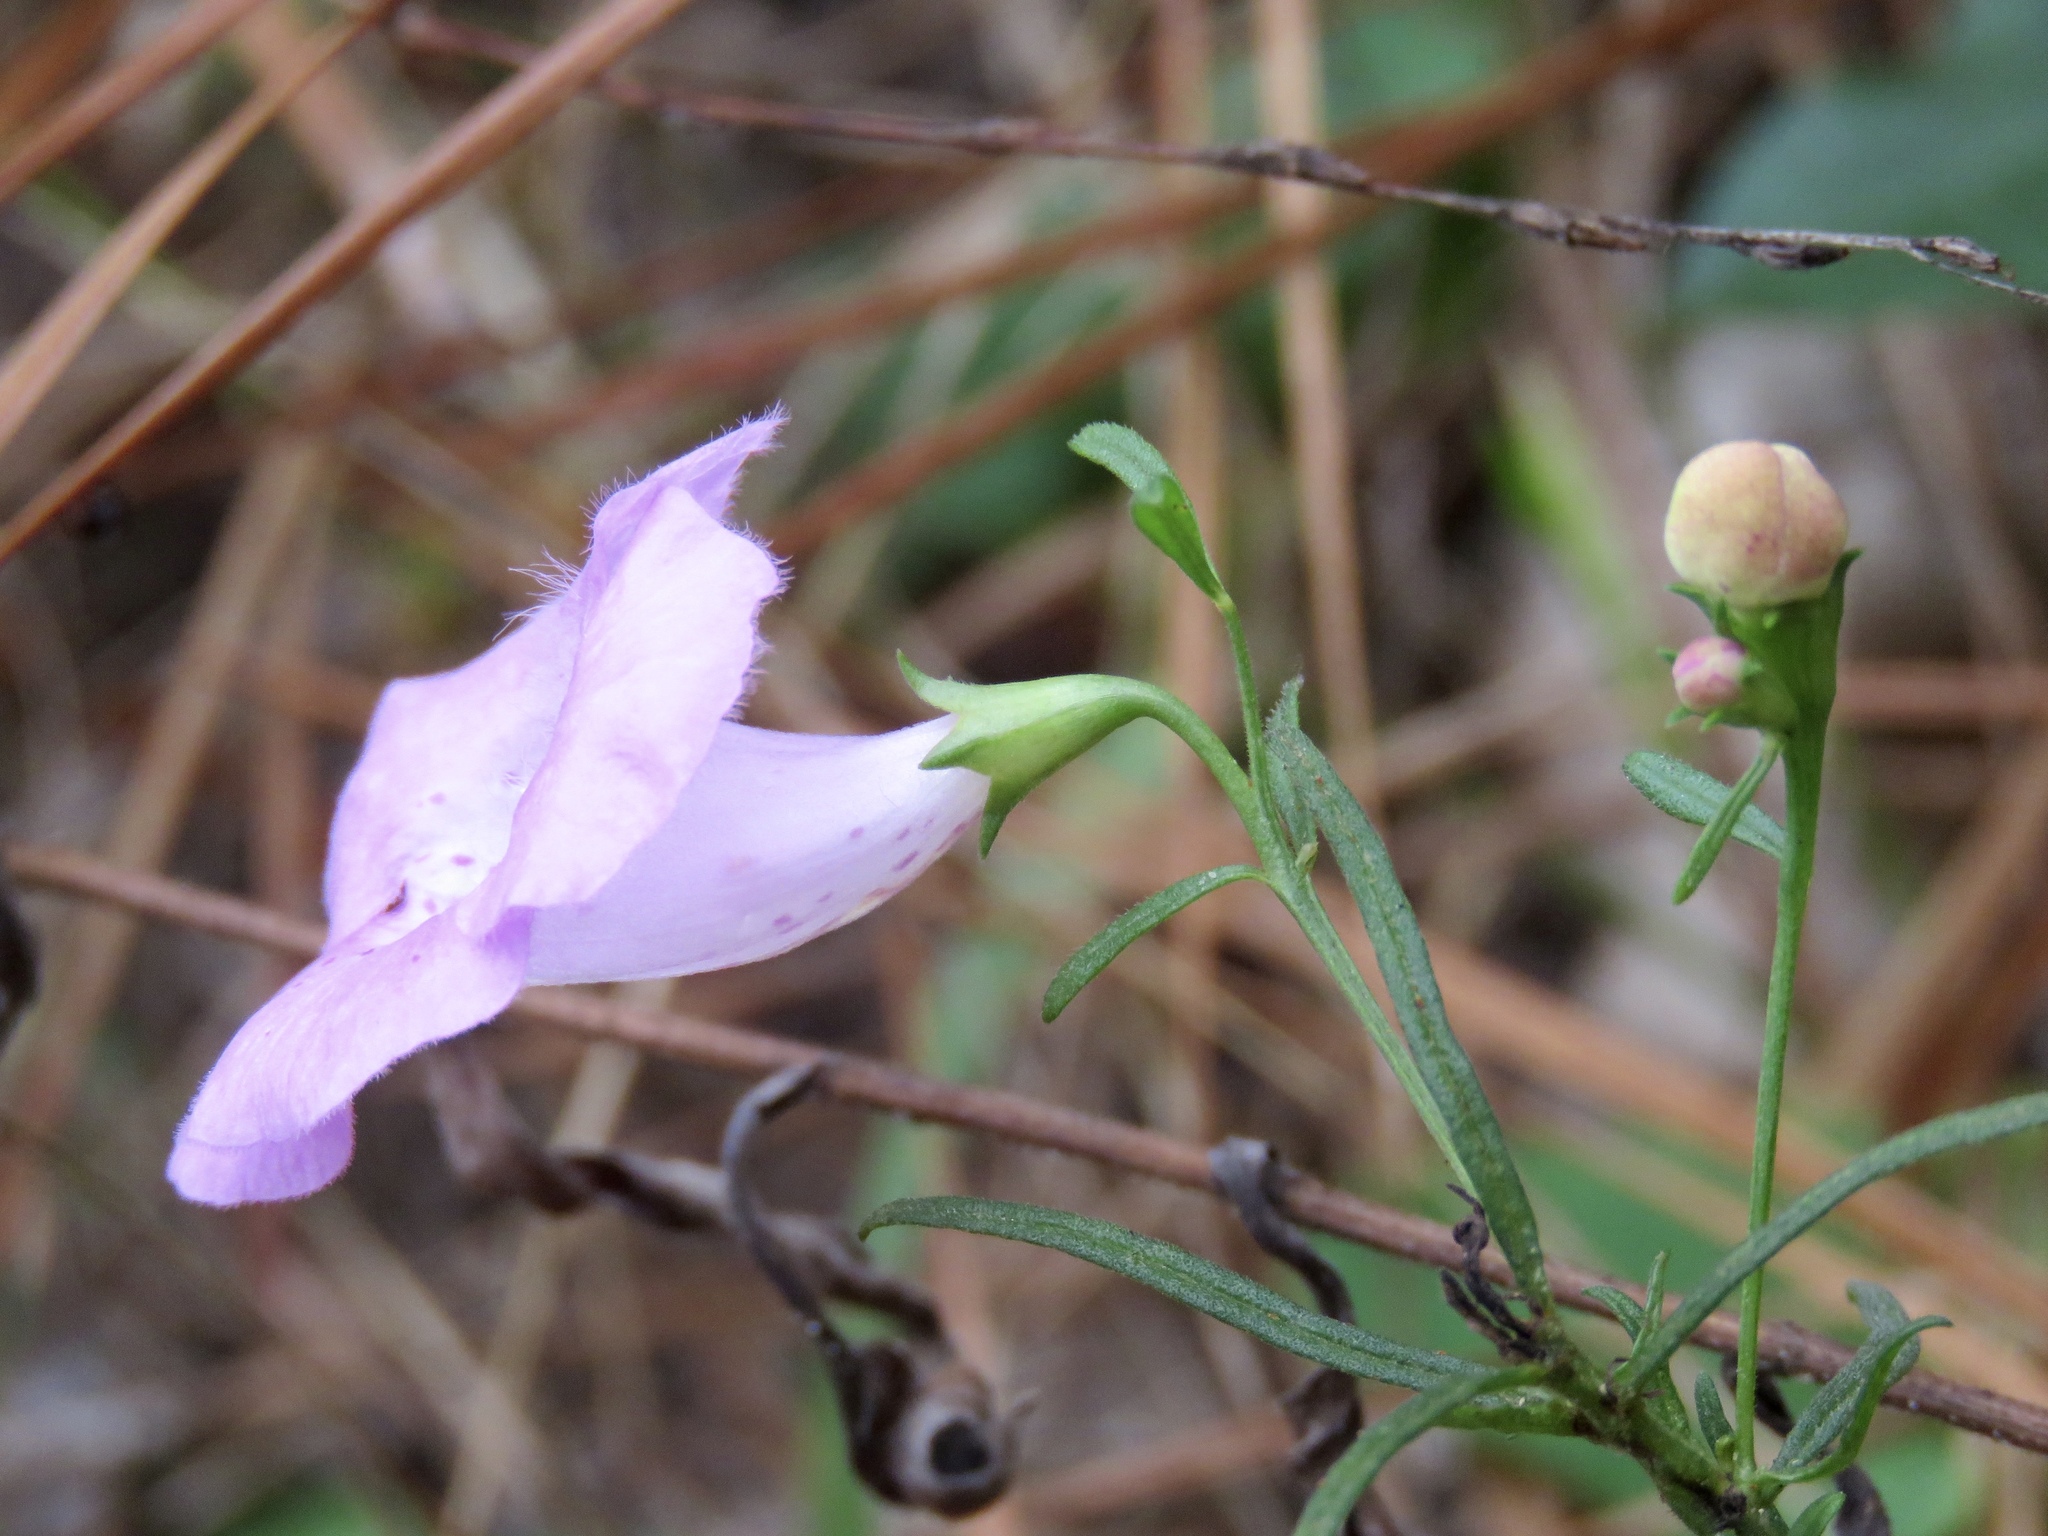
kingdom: Plantae
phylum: Tracheophyta
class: Magnoliopsida
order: Lamiales
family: Orobanchaceae
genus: Agalinis
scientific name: Agalinis purpurea
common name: Purple false foxglove
